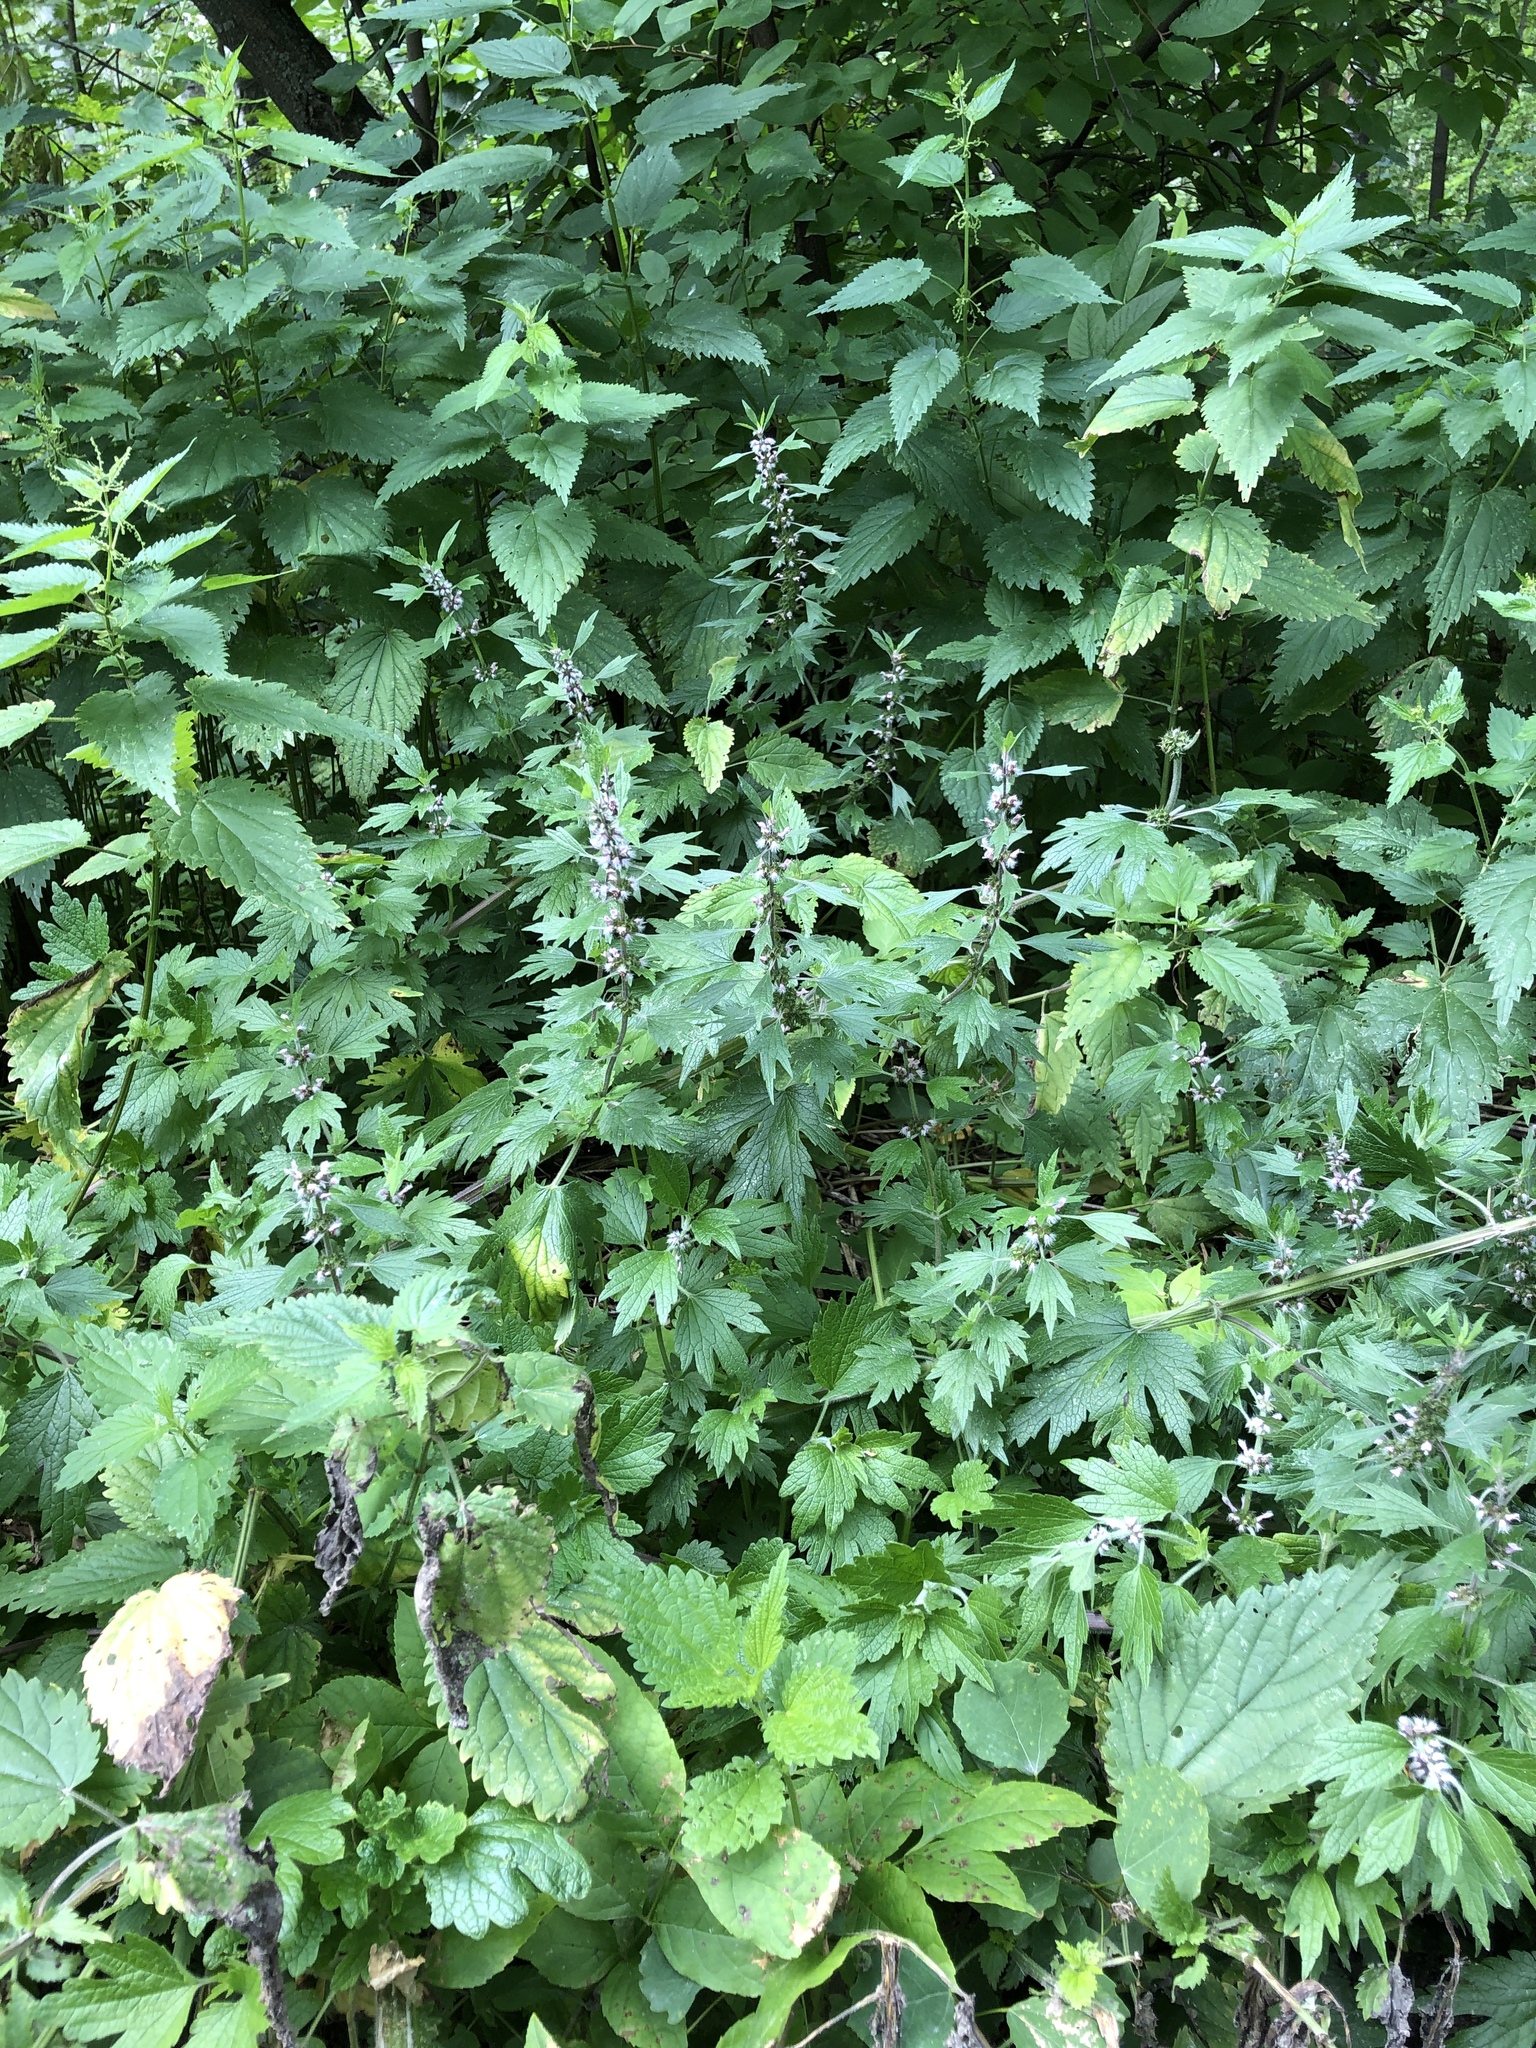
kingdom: Plantae
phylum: Tracheophyta
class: Magnoliopsida
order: Lamiales
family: Lamiaceae
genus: Leonurus
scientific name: Leonurus quinquelobatus
